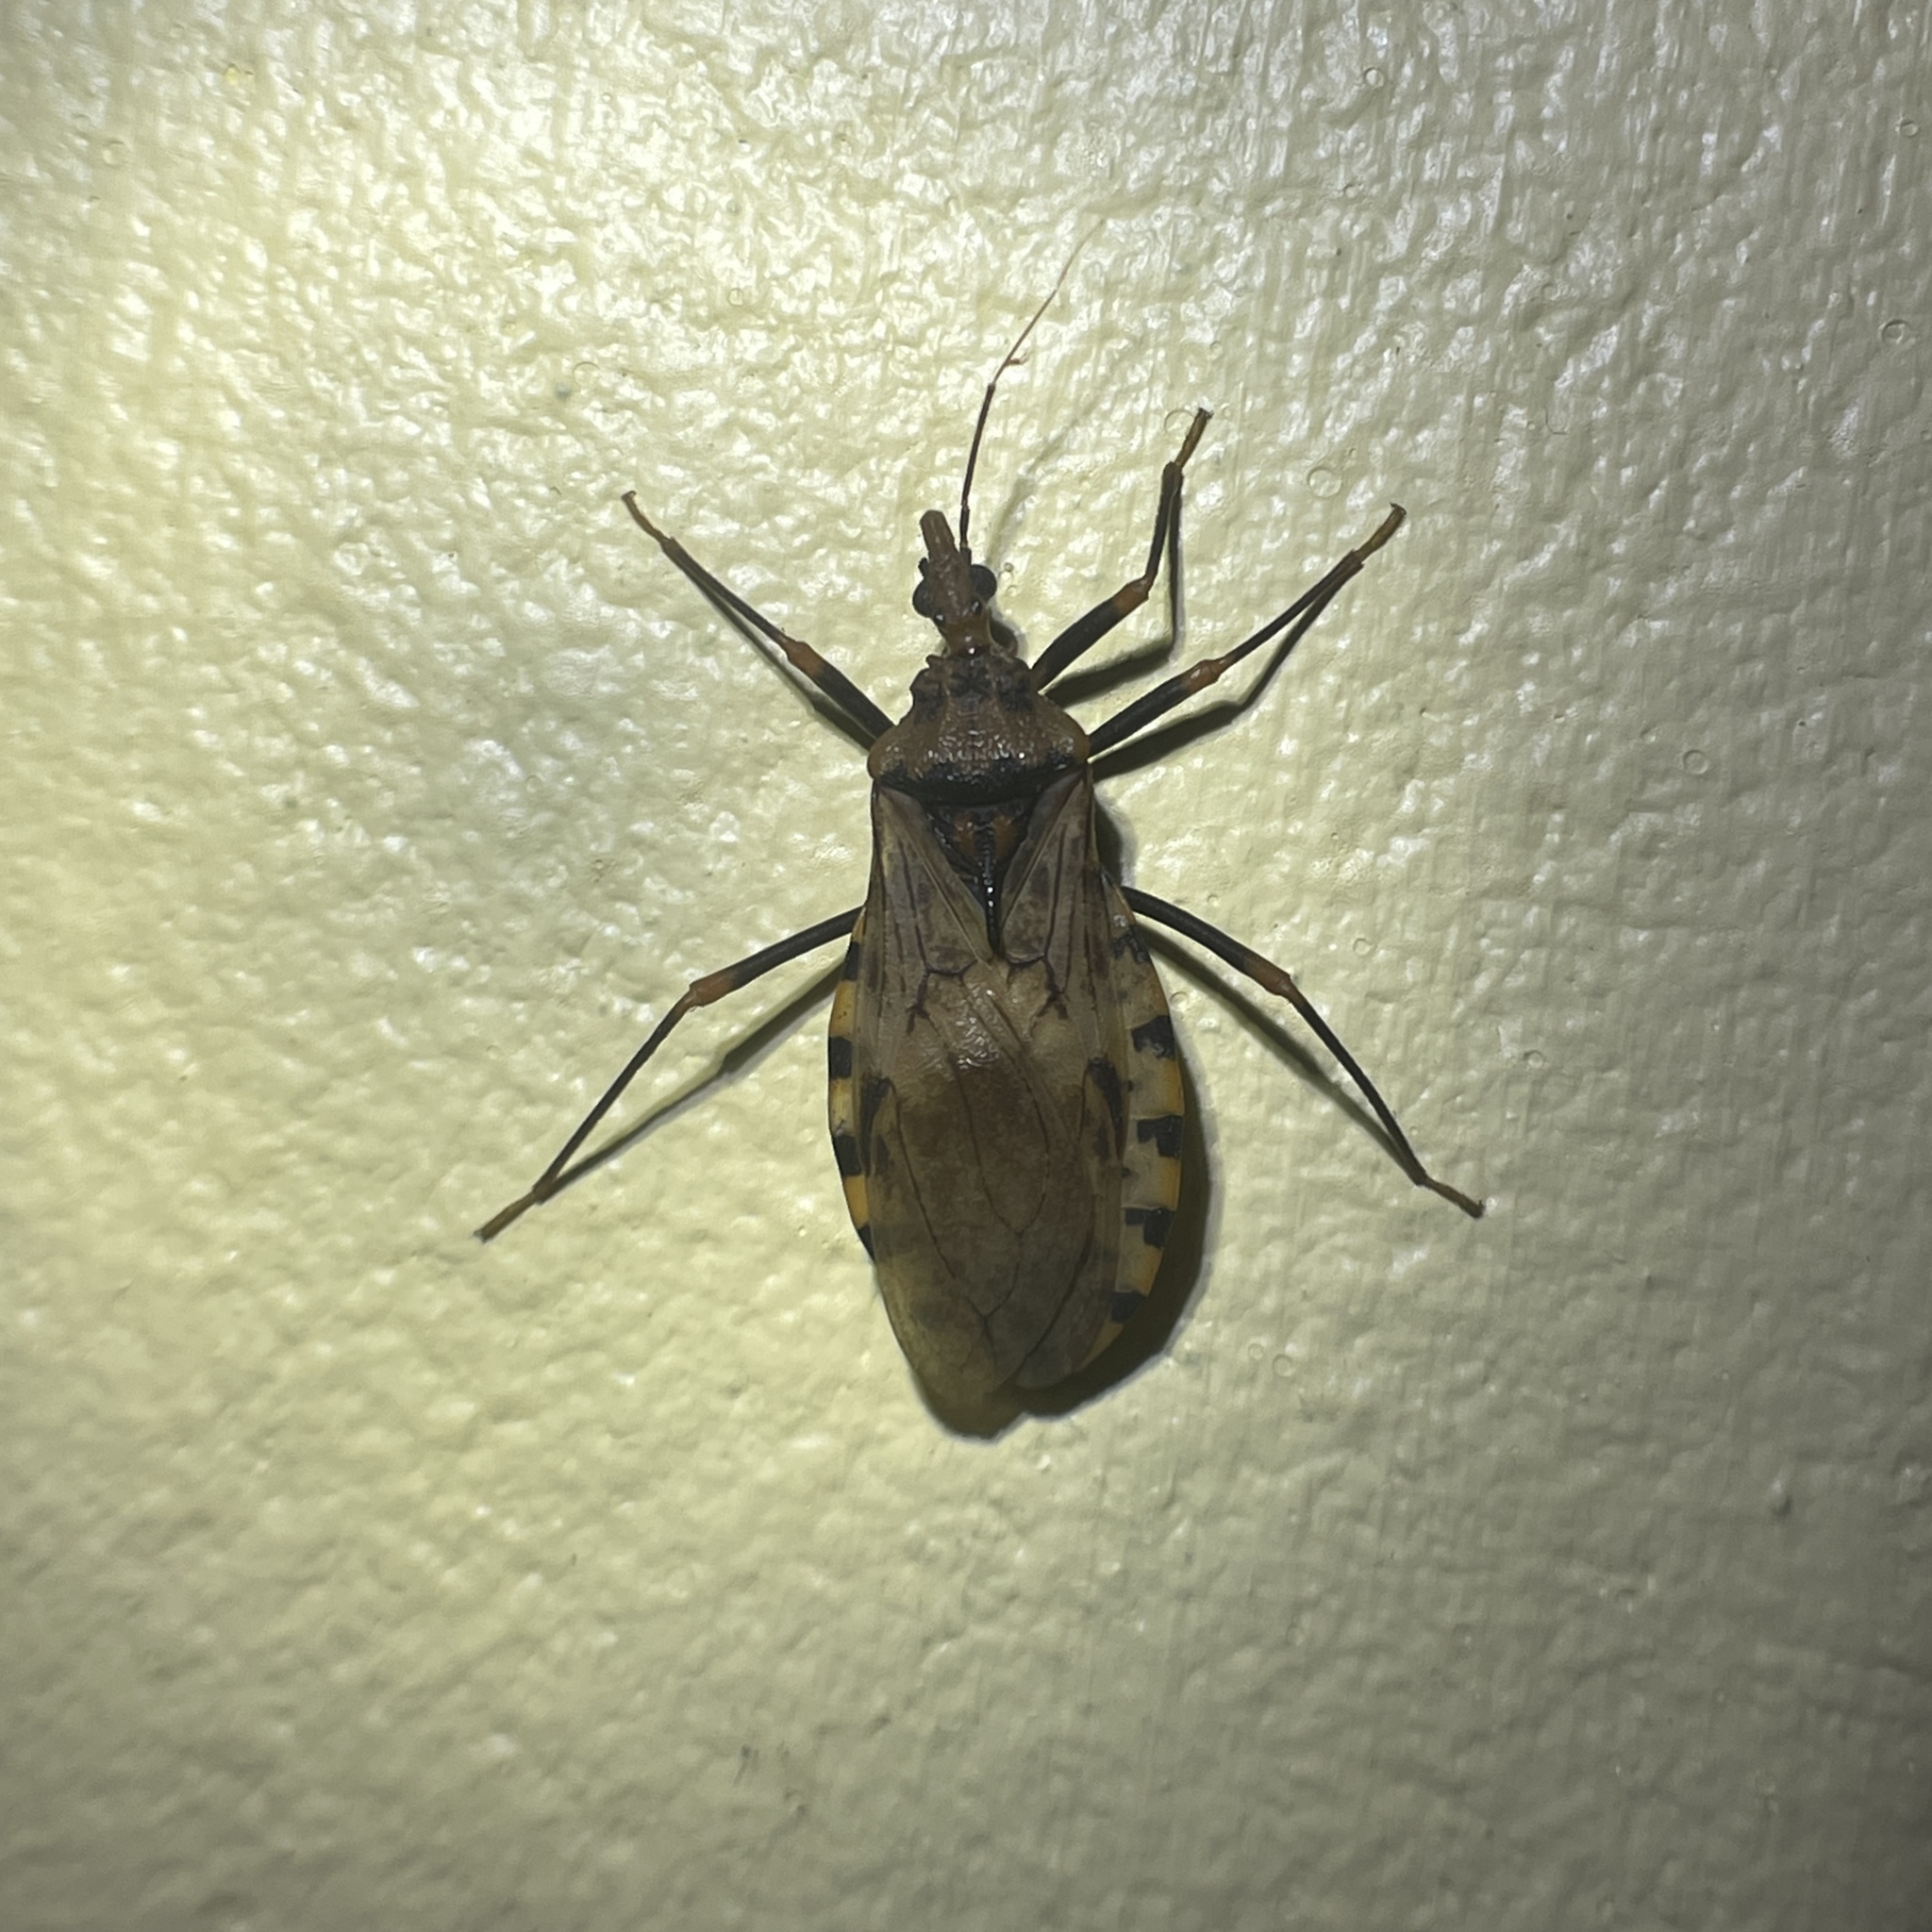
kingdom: Animalia
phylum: Arthropoda
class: Insecta
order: Hemiptera
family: Reduviidae
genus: Panstrongylus
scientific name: Panstrongylus geniculatus
